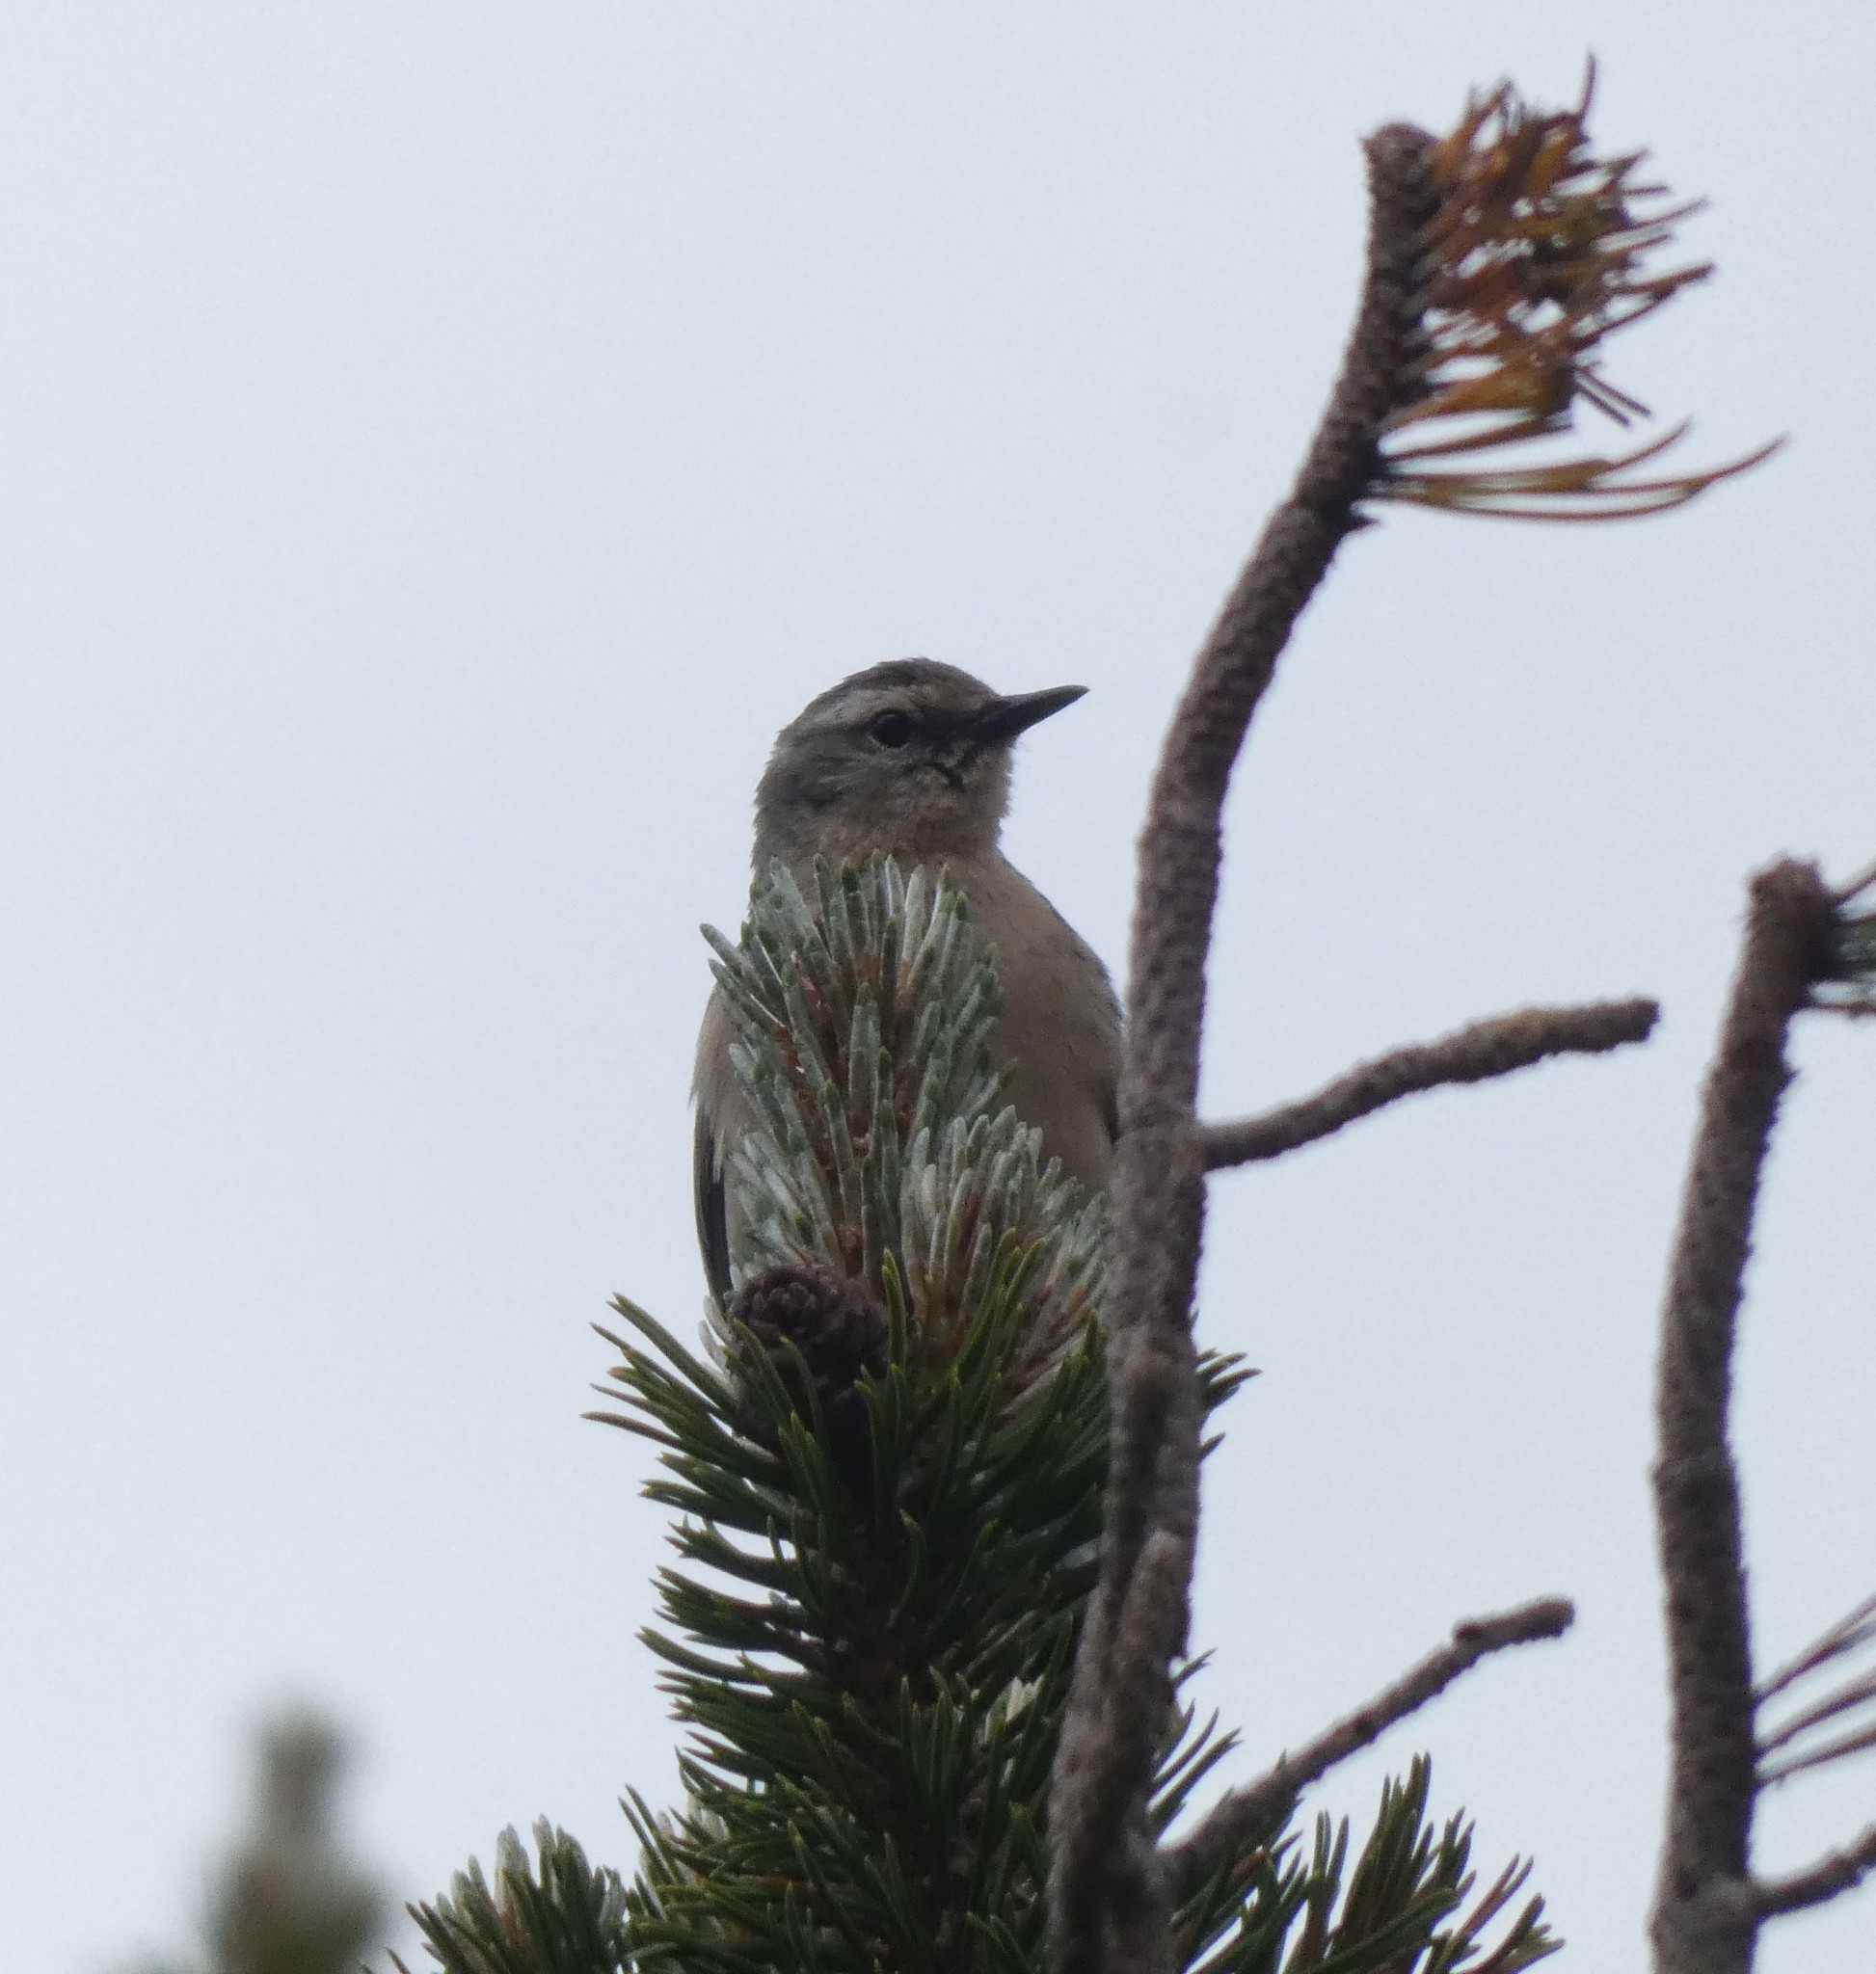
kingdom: Animalia
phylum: Chordata
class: Aves
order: Passeriformes
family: Motacillidae
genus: Anthus
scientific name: Anthus spinoletta
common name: Water pipit
